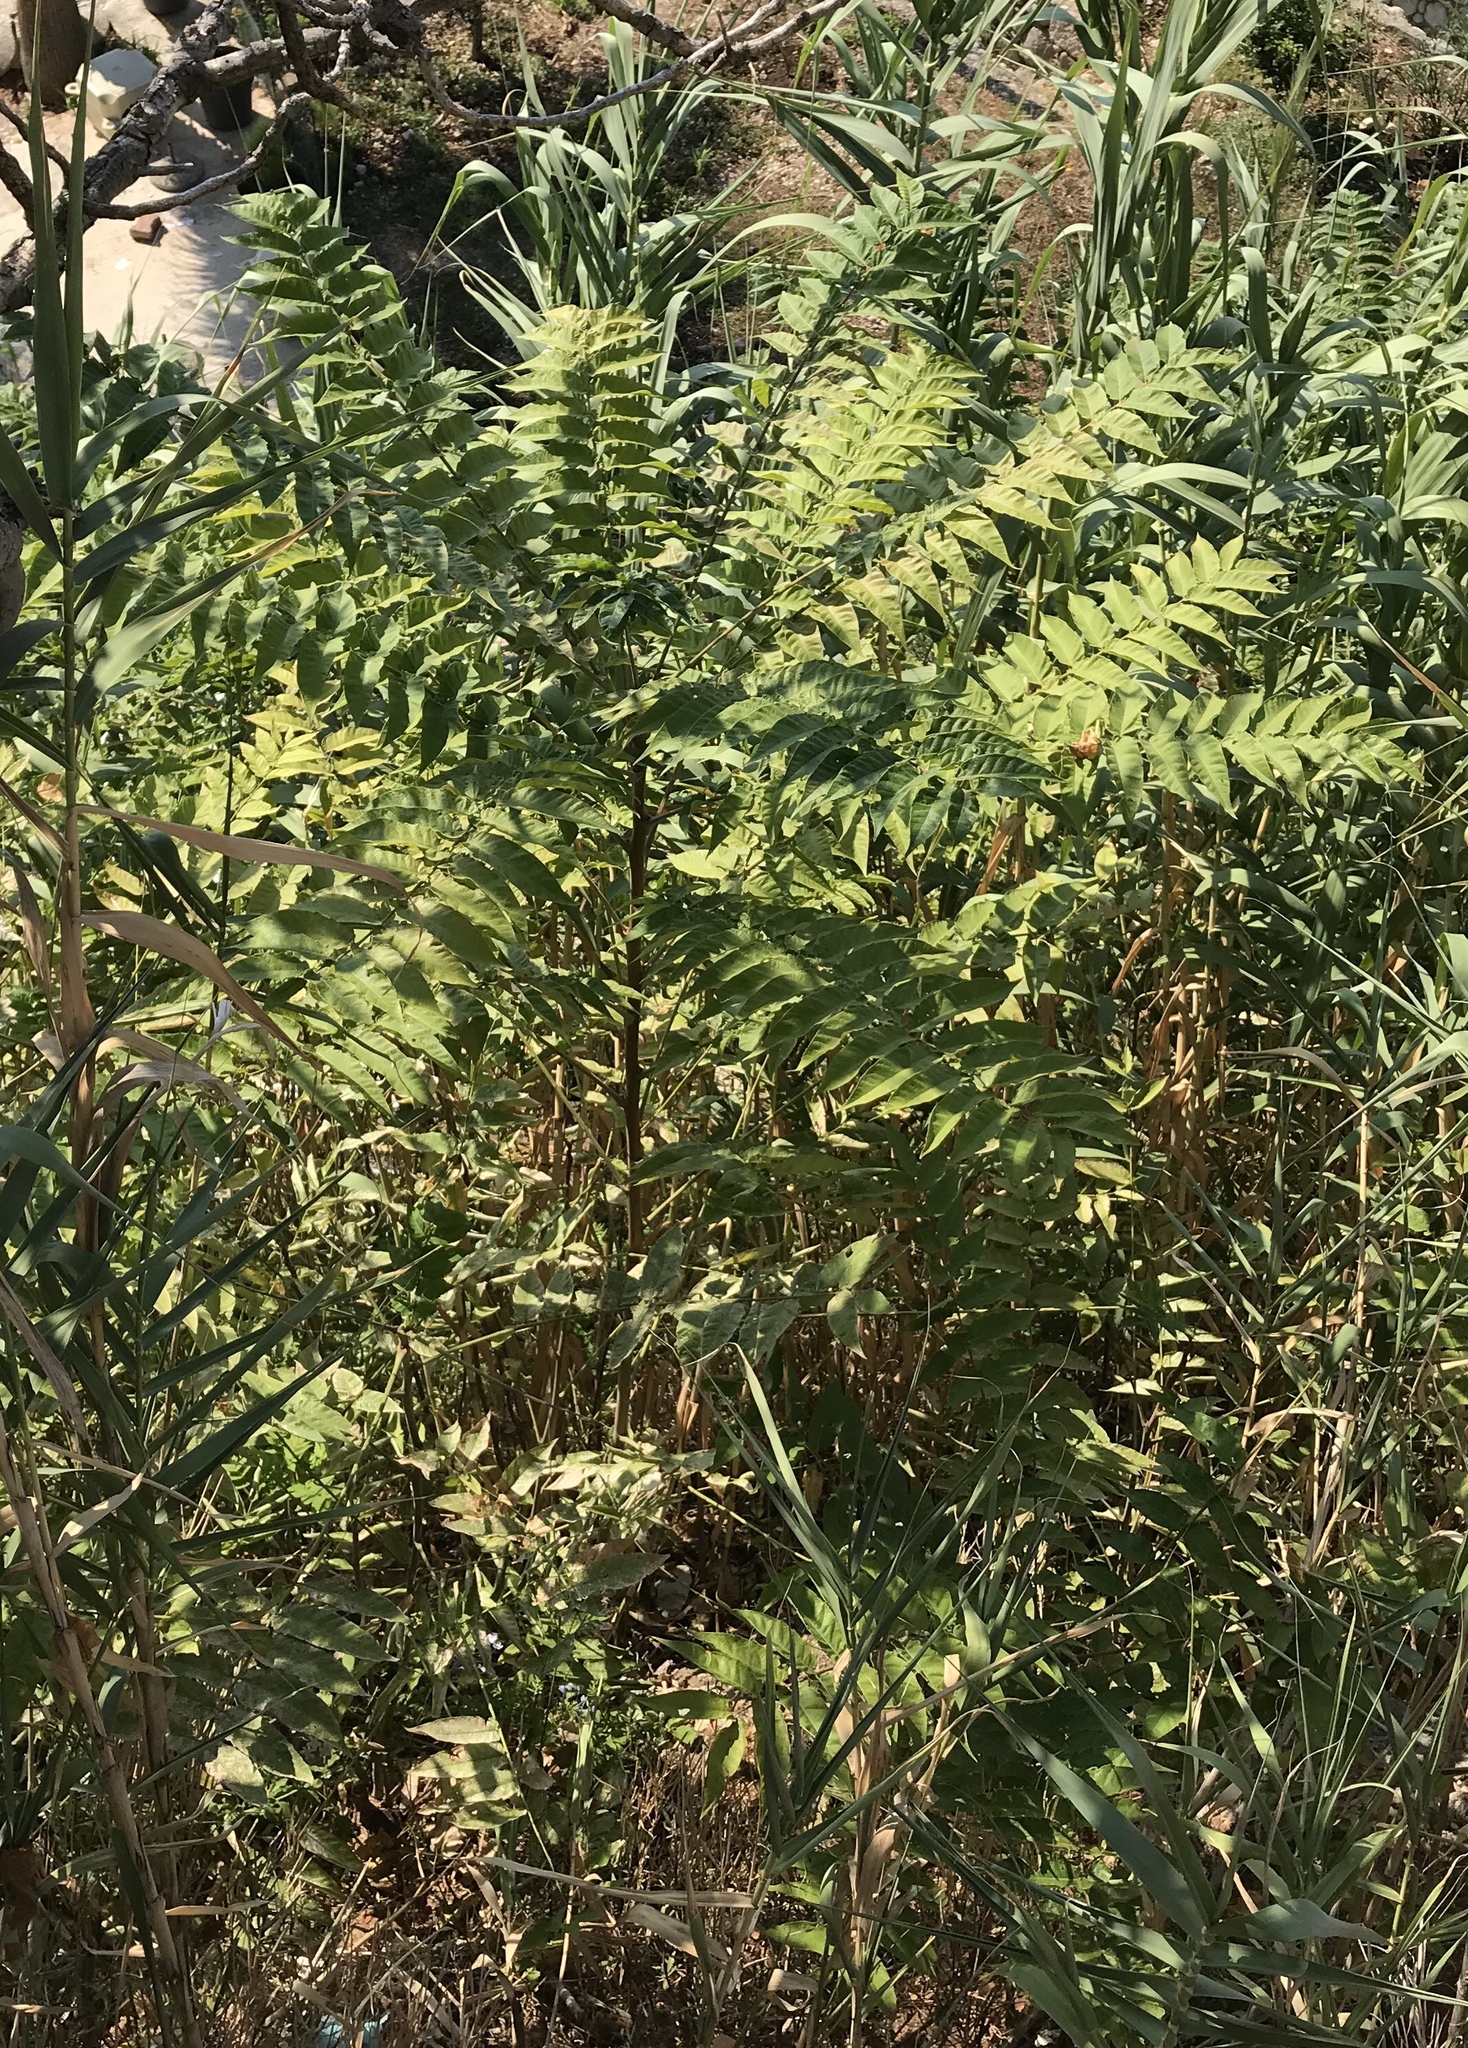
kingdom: Plantae
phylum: Tracheophyta
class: Magnoliopsida
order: Sapindales
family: Simaroubaceae
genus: Ailanthus
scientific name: Ailanthus altissima
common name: Tree-of-heaven
